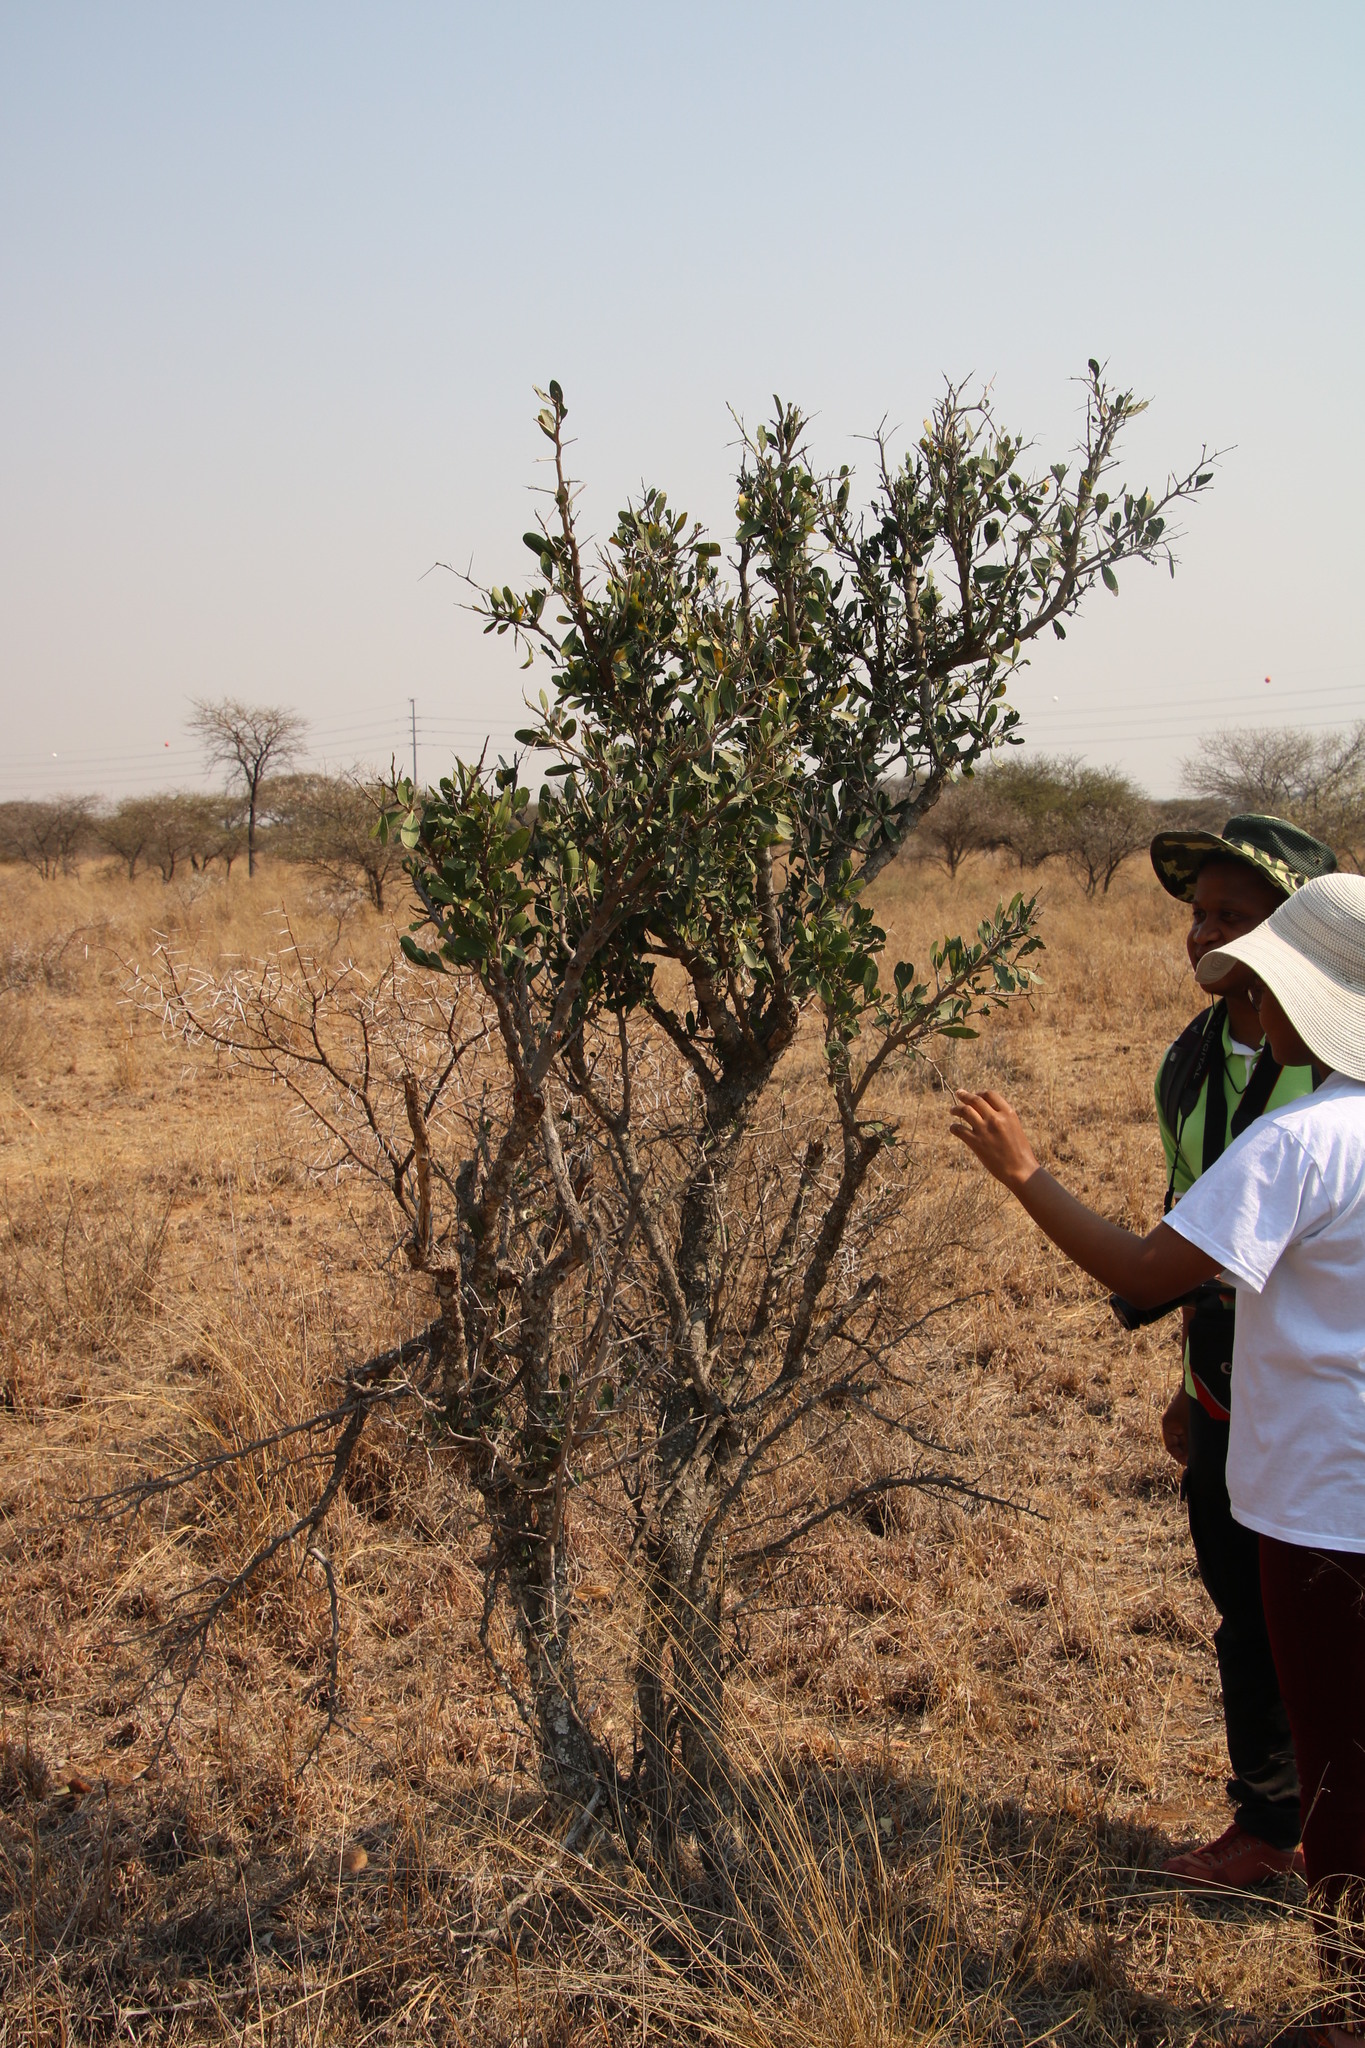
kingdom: Plantae
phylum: Tracheophyta
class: Magnoliopsida
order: Celastrales
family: Celastraceae
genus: Gymnosporia
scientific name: Gymnosporia senegalensis
